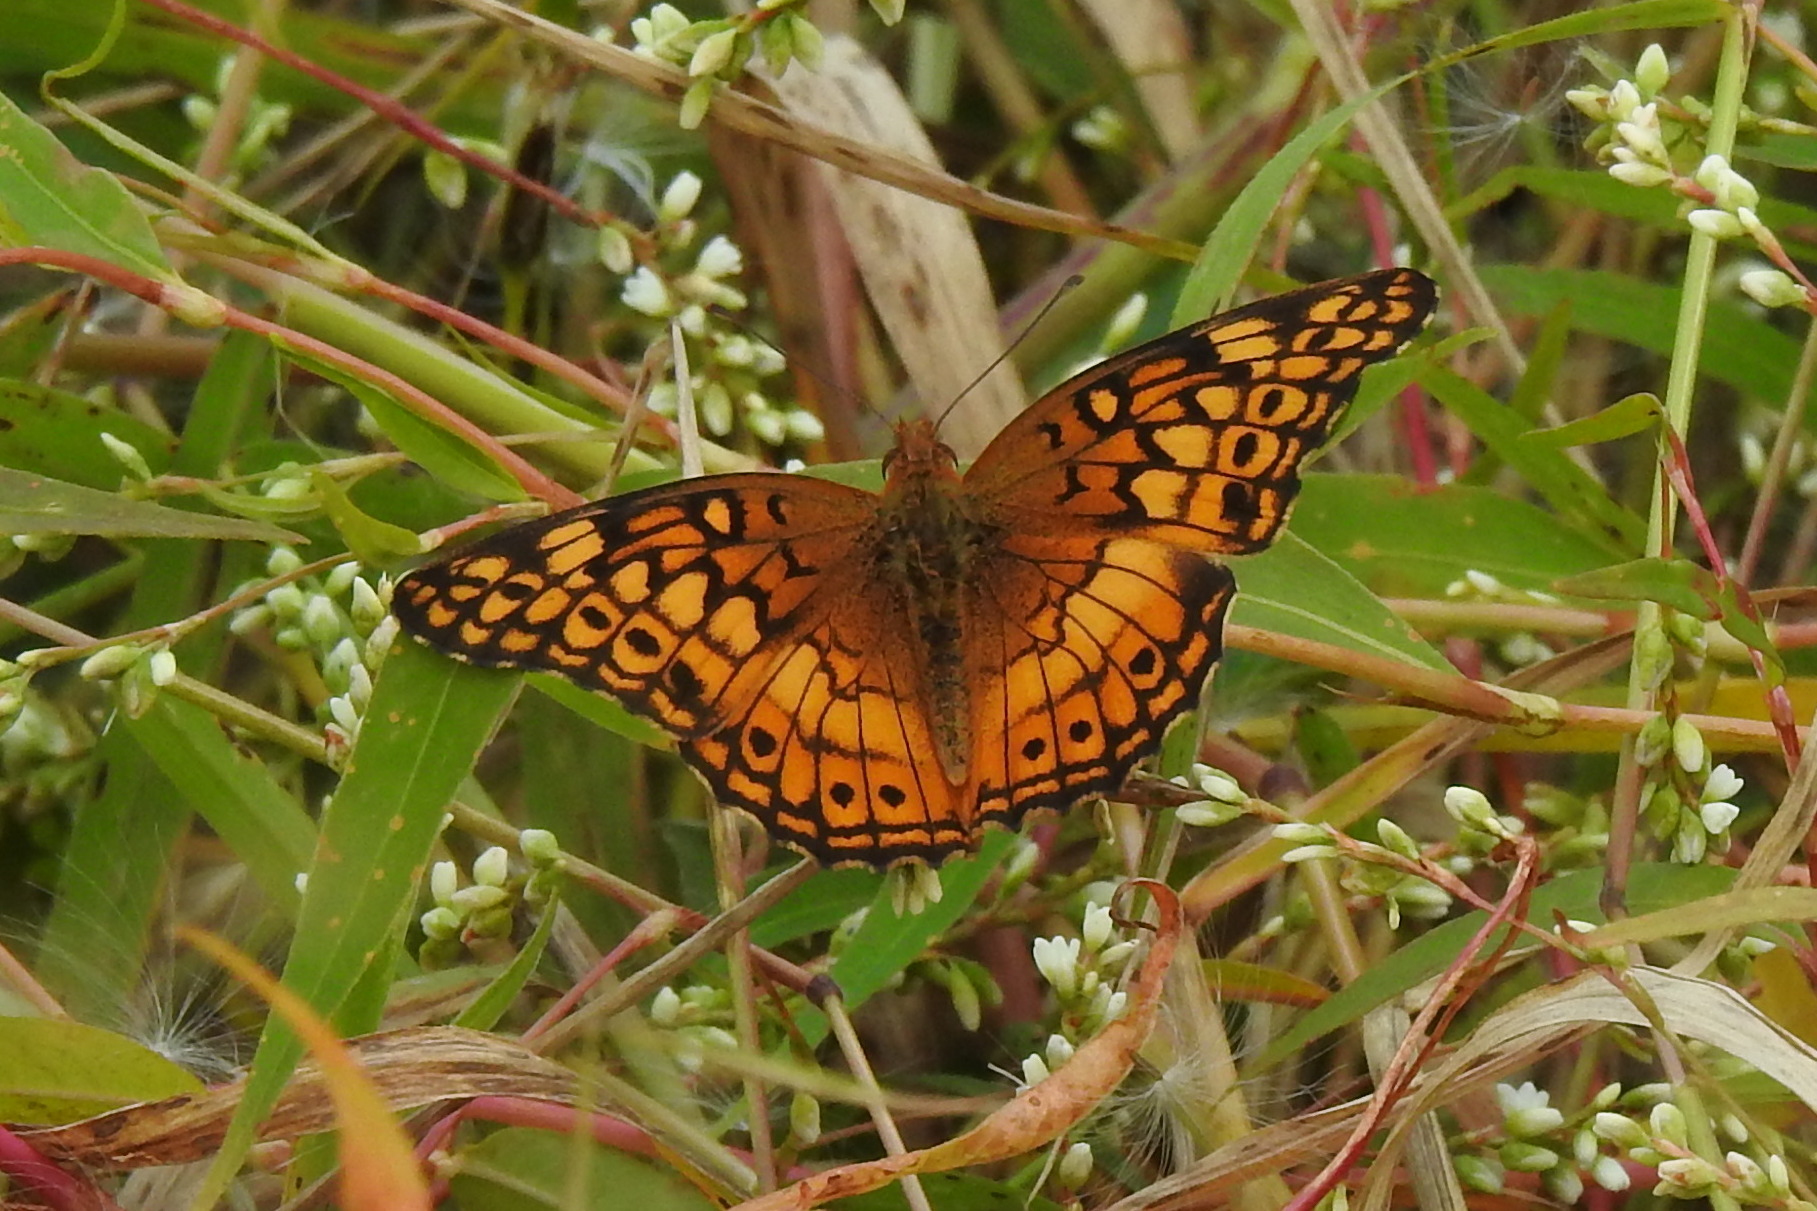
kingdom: Animalia
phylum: Arthropoda
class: Insecta
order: Lepidoptera
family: Nymphalidae
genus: Euptoieta
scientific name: Euptoieta claudia
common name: Variegated fritillary
